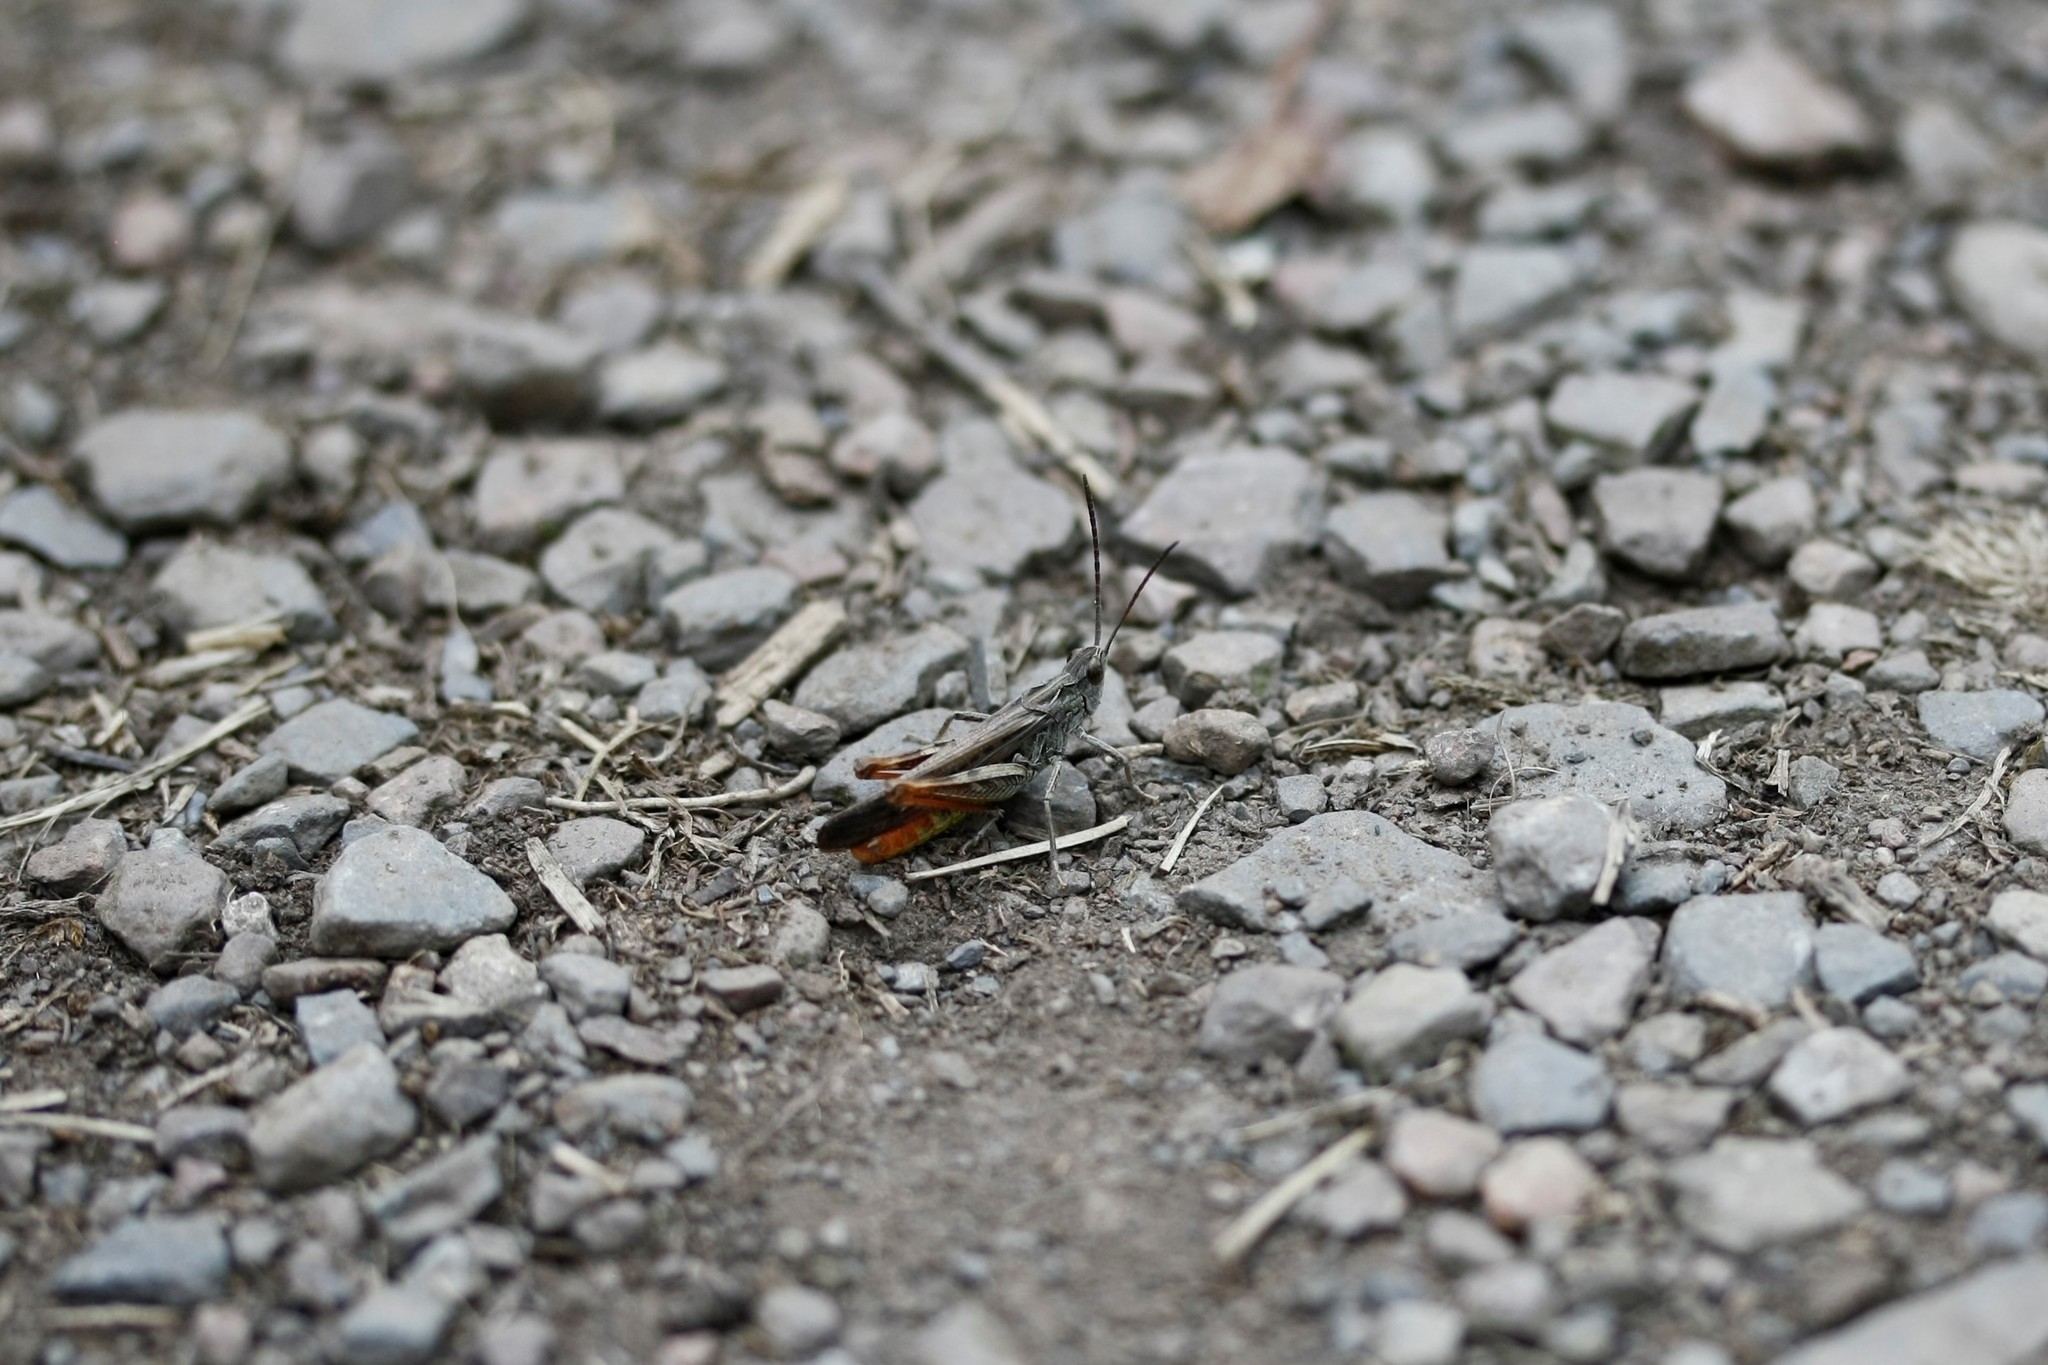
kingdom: Animalia
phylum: Arthropoda
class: Insecta
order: Orthoptera
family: Acrididae
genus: Chorthippus
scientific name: Chorthippus brunneus
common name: Field grasshopper
